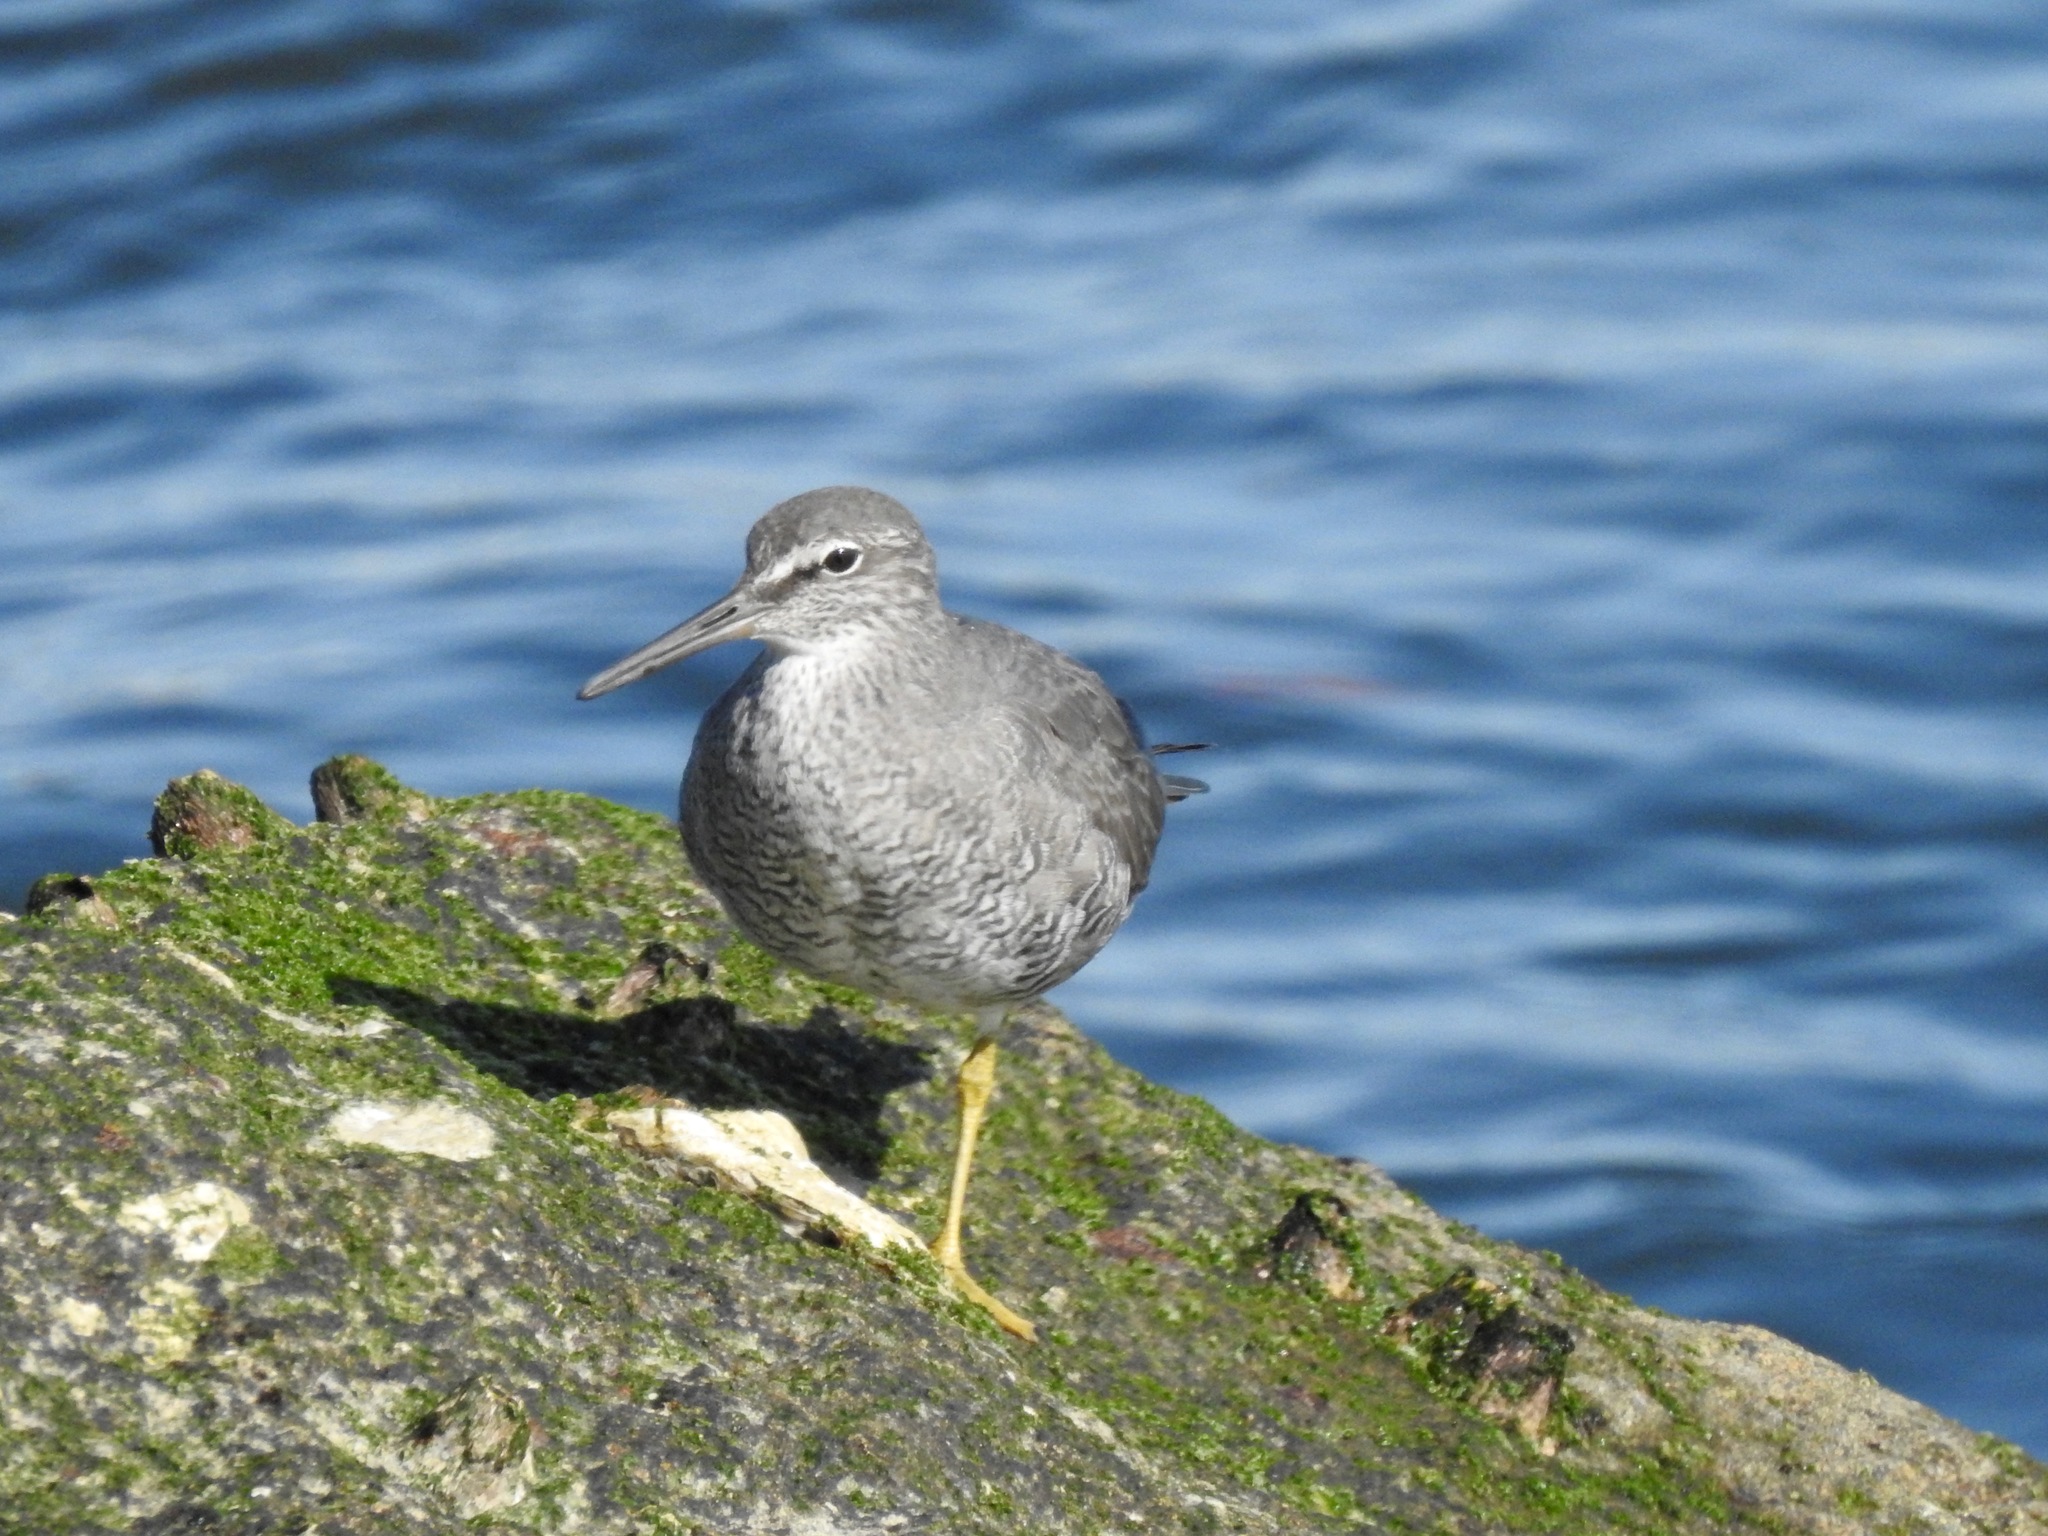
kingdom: Animalia
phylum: Chordata
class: Aves
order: Charadriiformes
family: Scolopacidae
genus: Tringa
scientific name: Tringa incana
